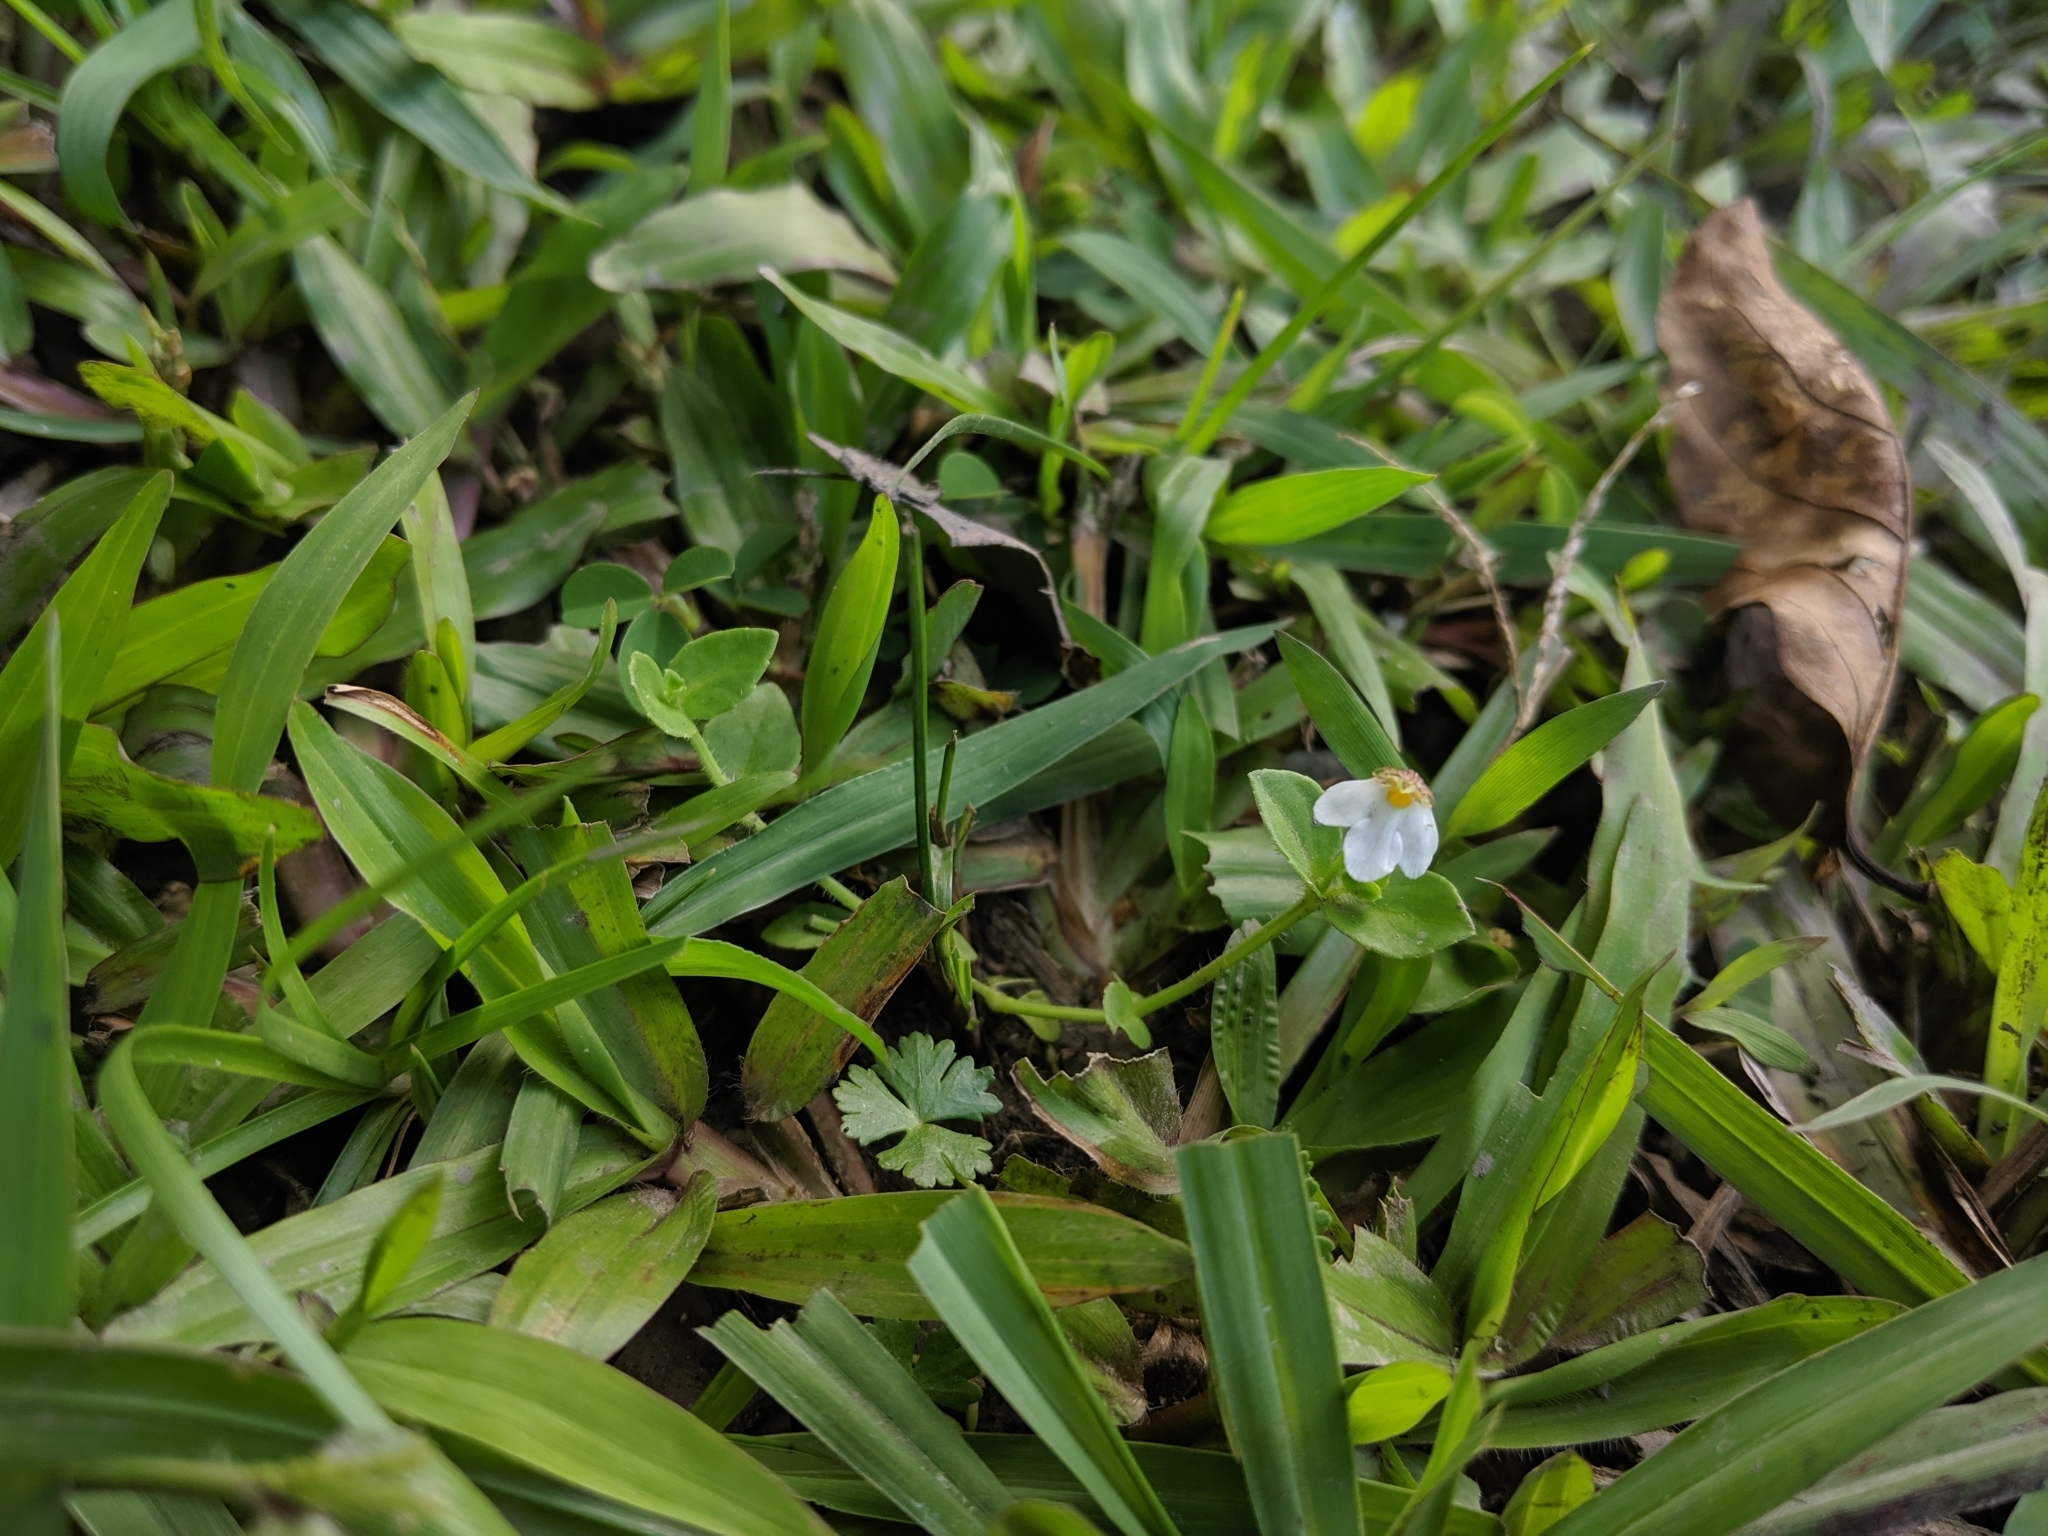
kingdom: Plantae
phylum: Tracheophyta
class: Magnoliopsida
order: Lamiales
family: Linderniaceae
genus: Yamazakia
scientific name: Yamazakia pusilla
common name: Tiny slitwort
